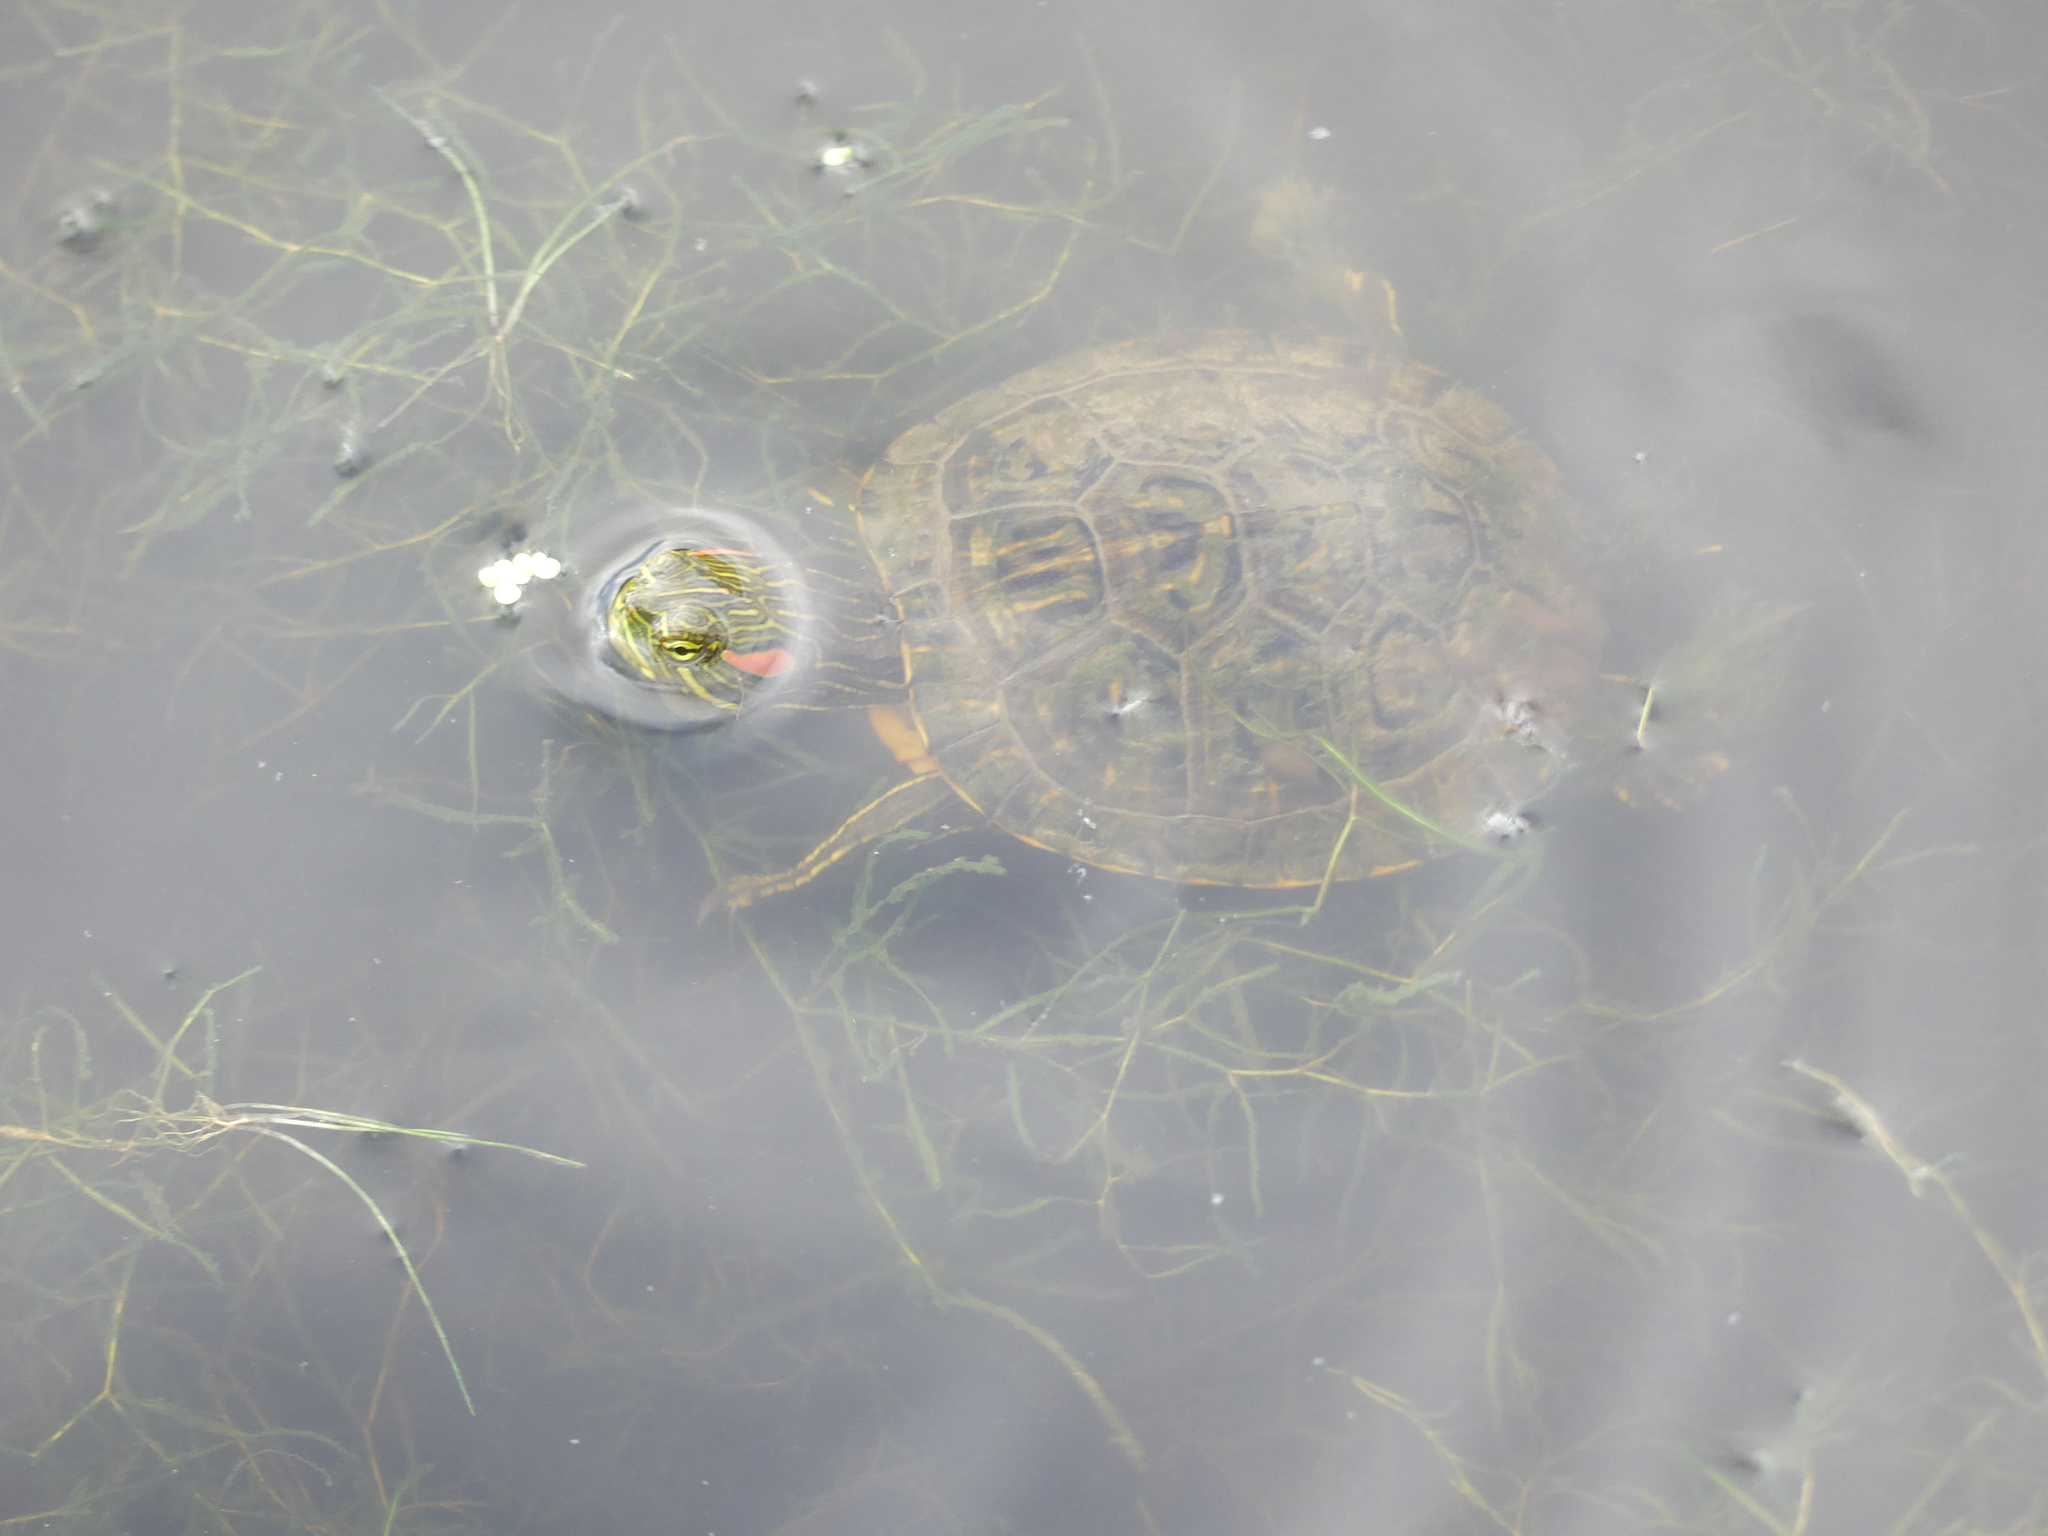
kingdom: Animalia
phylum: Chordata
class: Testudines
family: Emydidae
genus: Trachemys
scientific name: Trachemys scripta
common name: Slider
